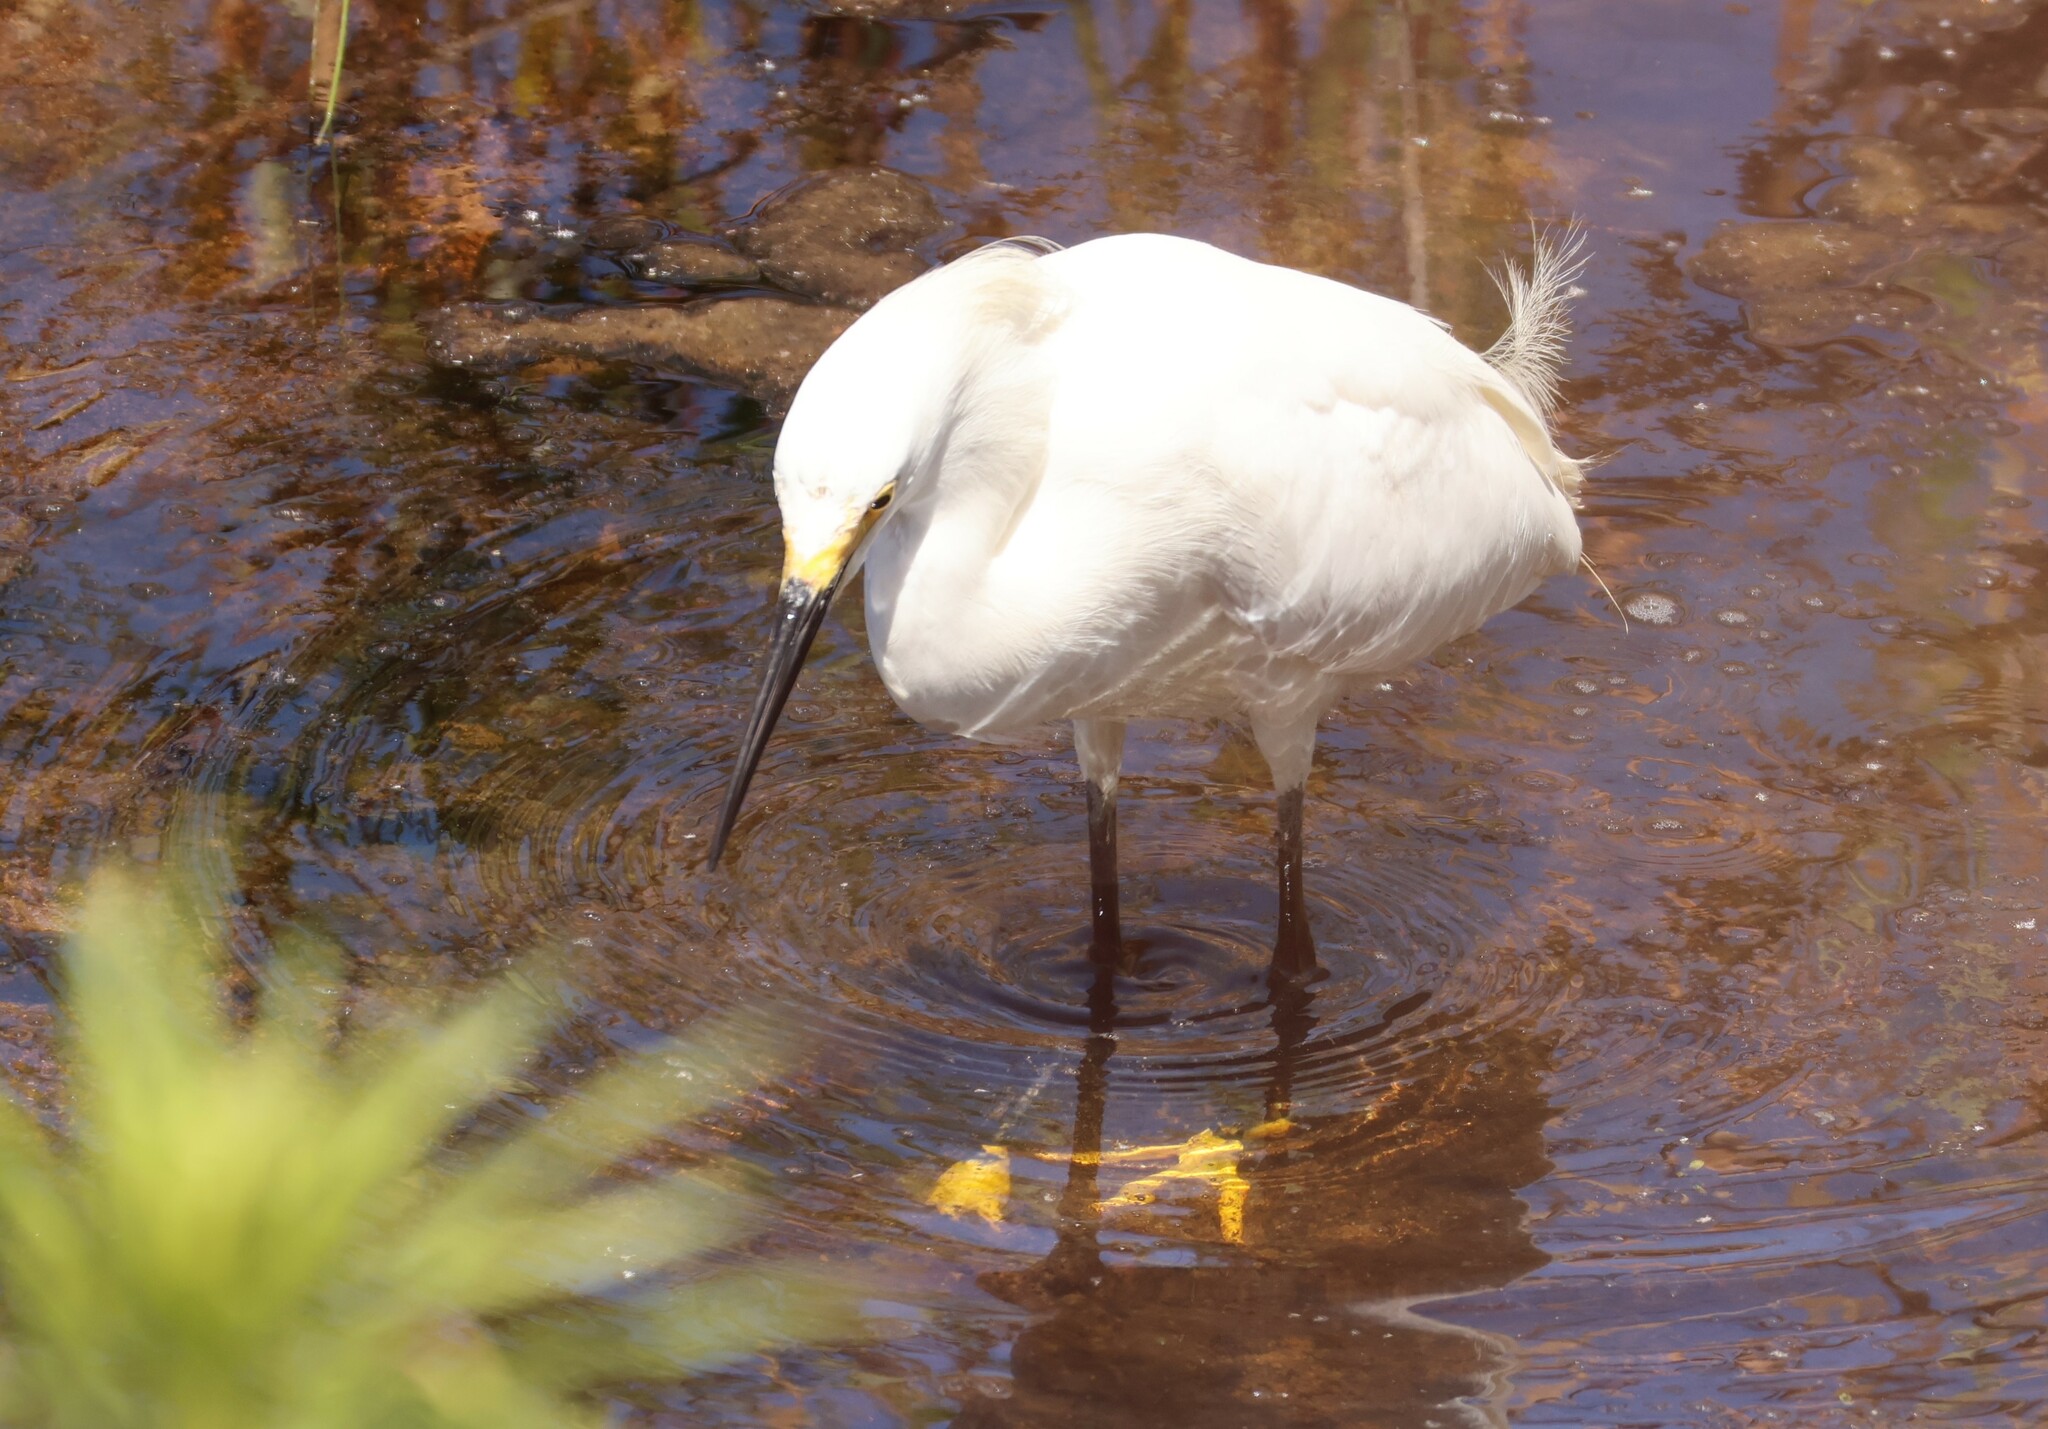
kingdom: Animalia
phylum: Chordata
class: Aves
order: Pelecaniformes
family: Ardeidae
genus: Egretta
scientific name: Egretta thula
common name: Snowy egret
